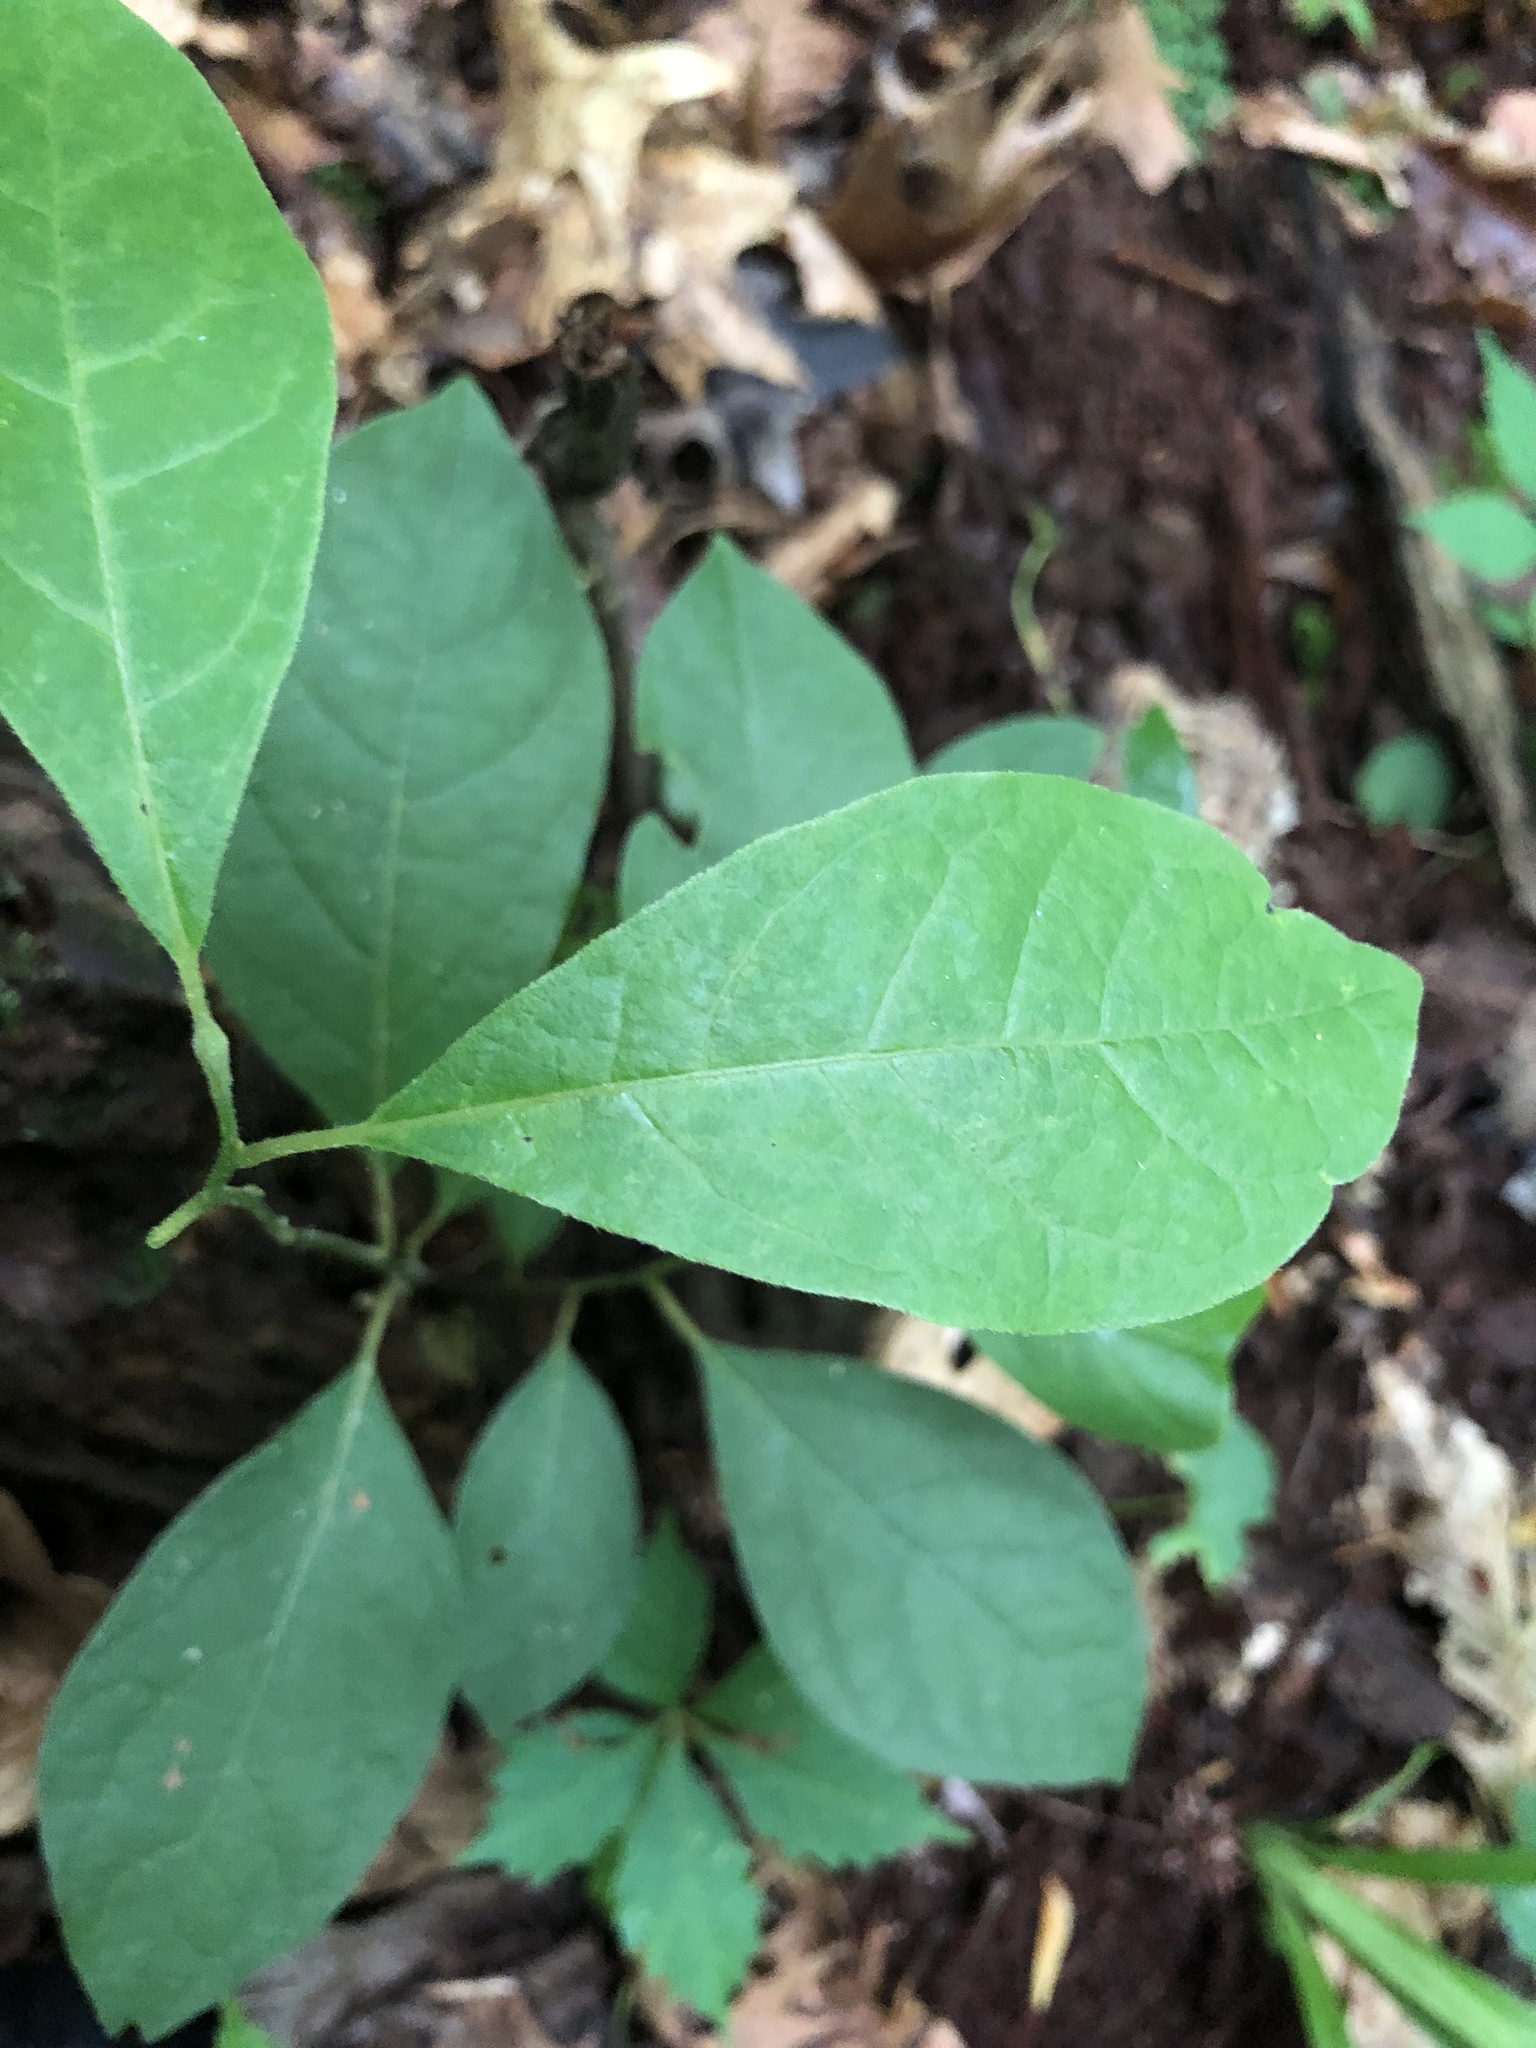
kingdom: Plantae
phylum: Tracheophyta
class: Magnoliopsida
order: Laurales
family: Lauraceae
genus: Lindera
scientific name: Lindera benzoin
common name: Spicebush
